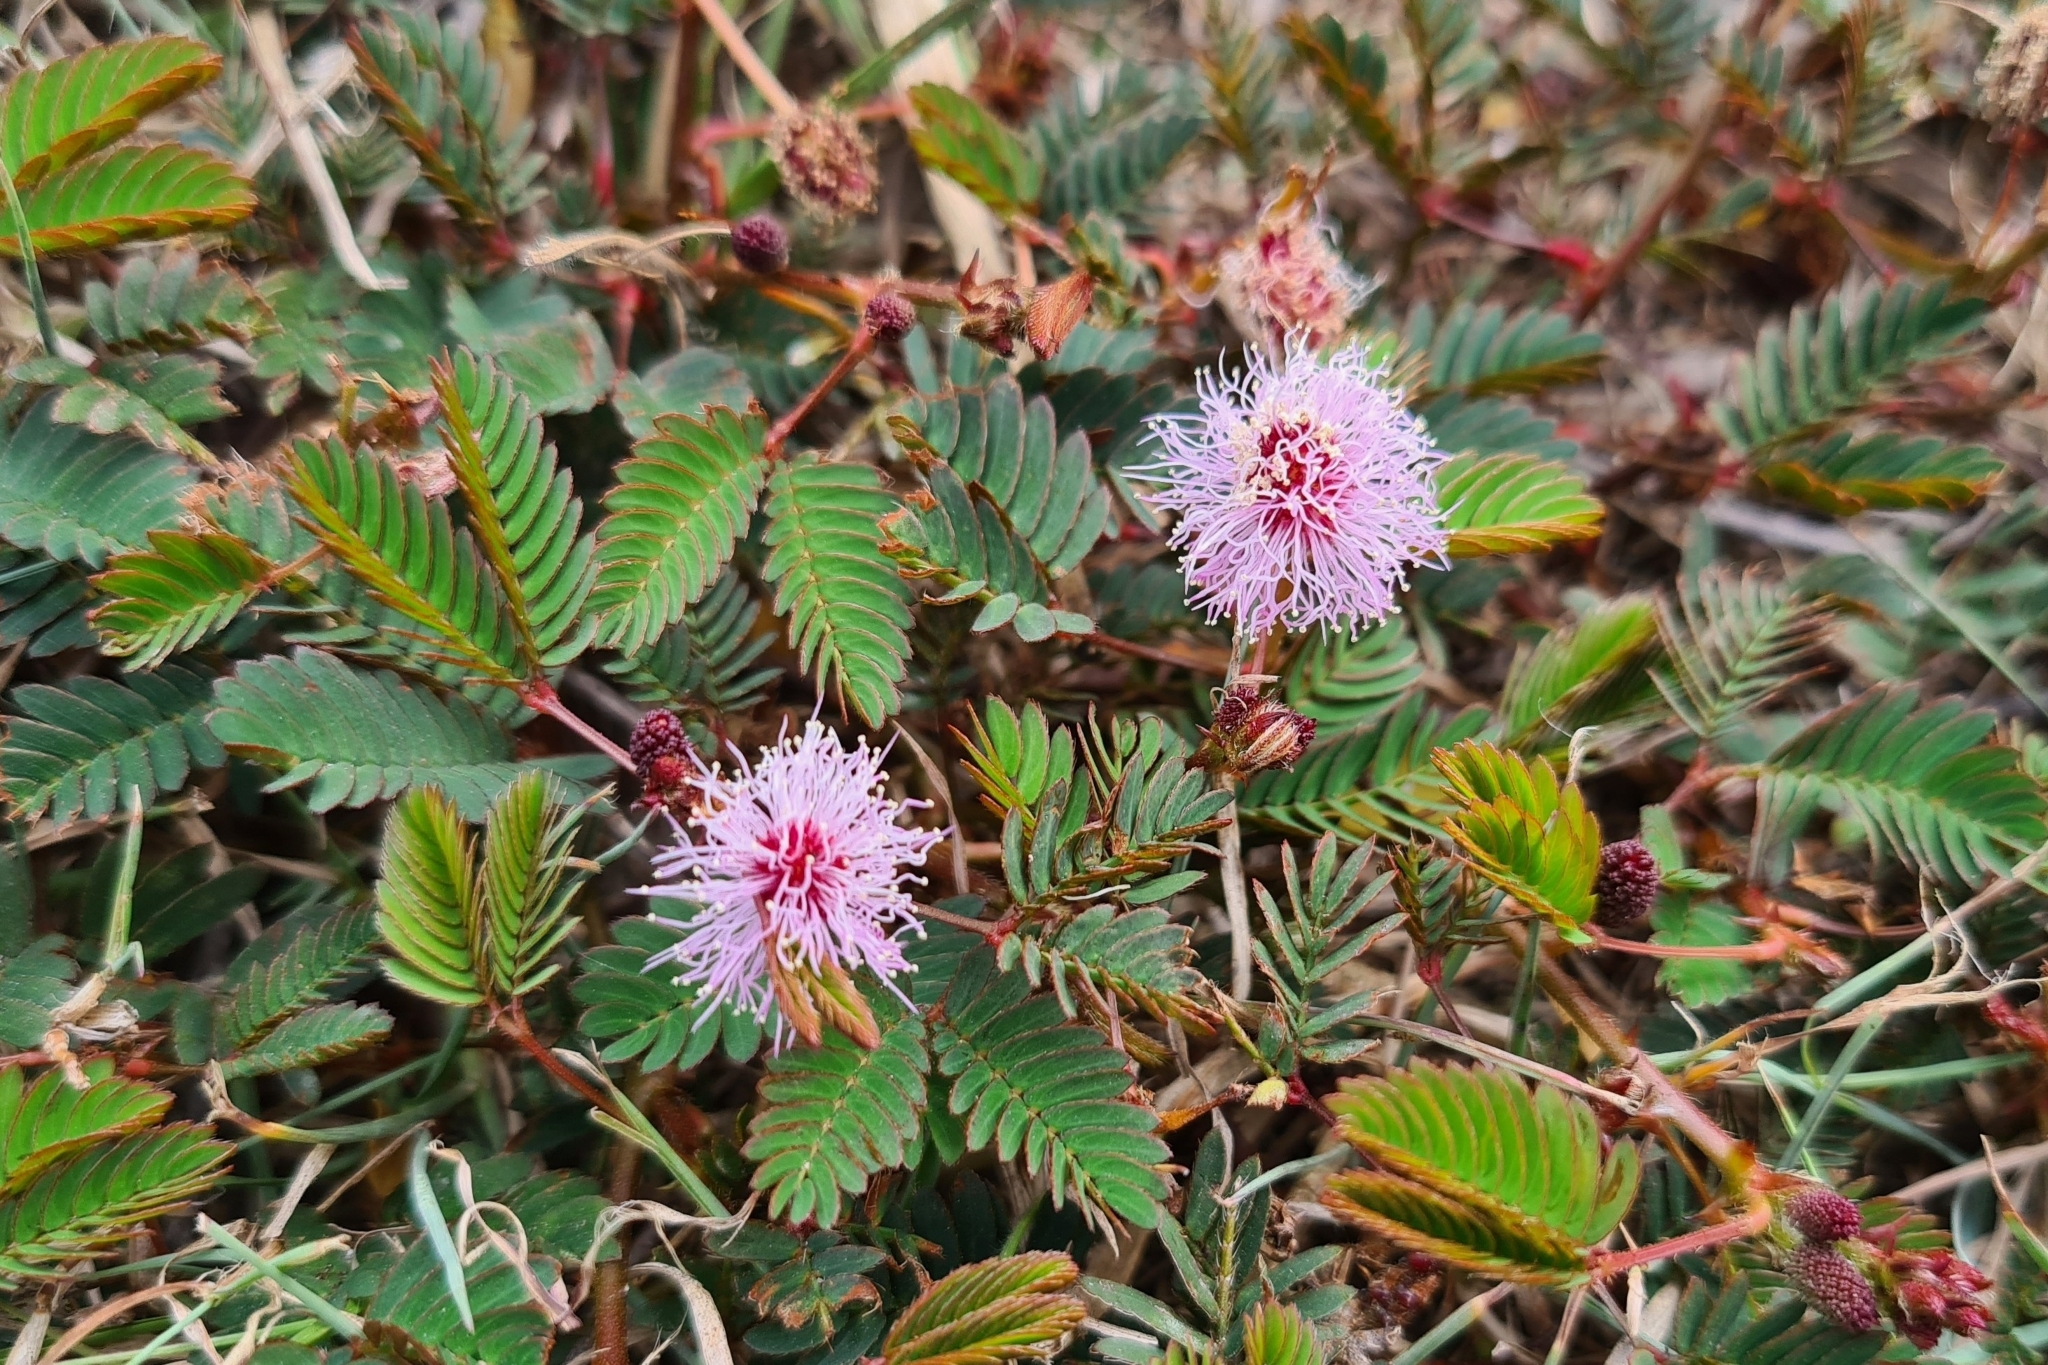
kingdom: Plantae
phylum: Tracheophyta
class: Magnoliopsida
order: Fabales
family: Fabaceae
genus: Mimosa
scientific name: Mimosa pudica
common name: Sensitive plant
